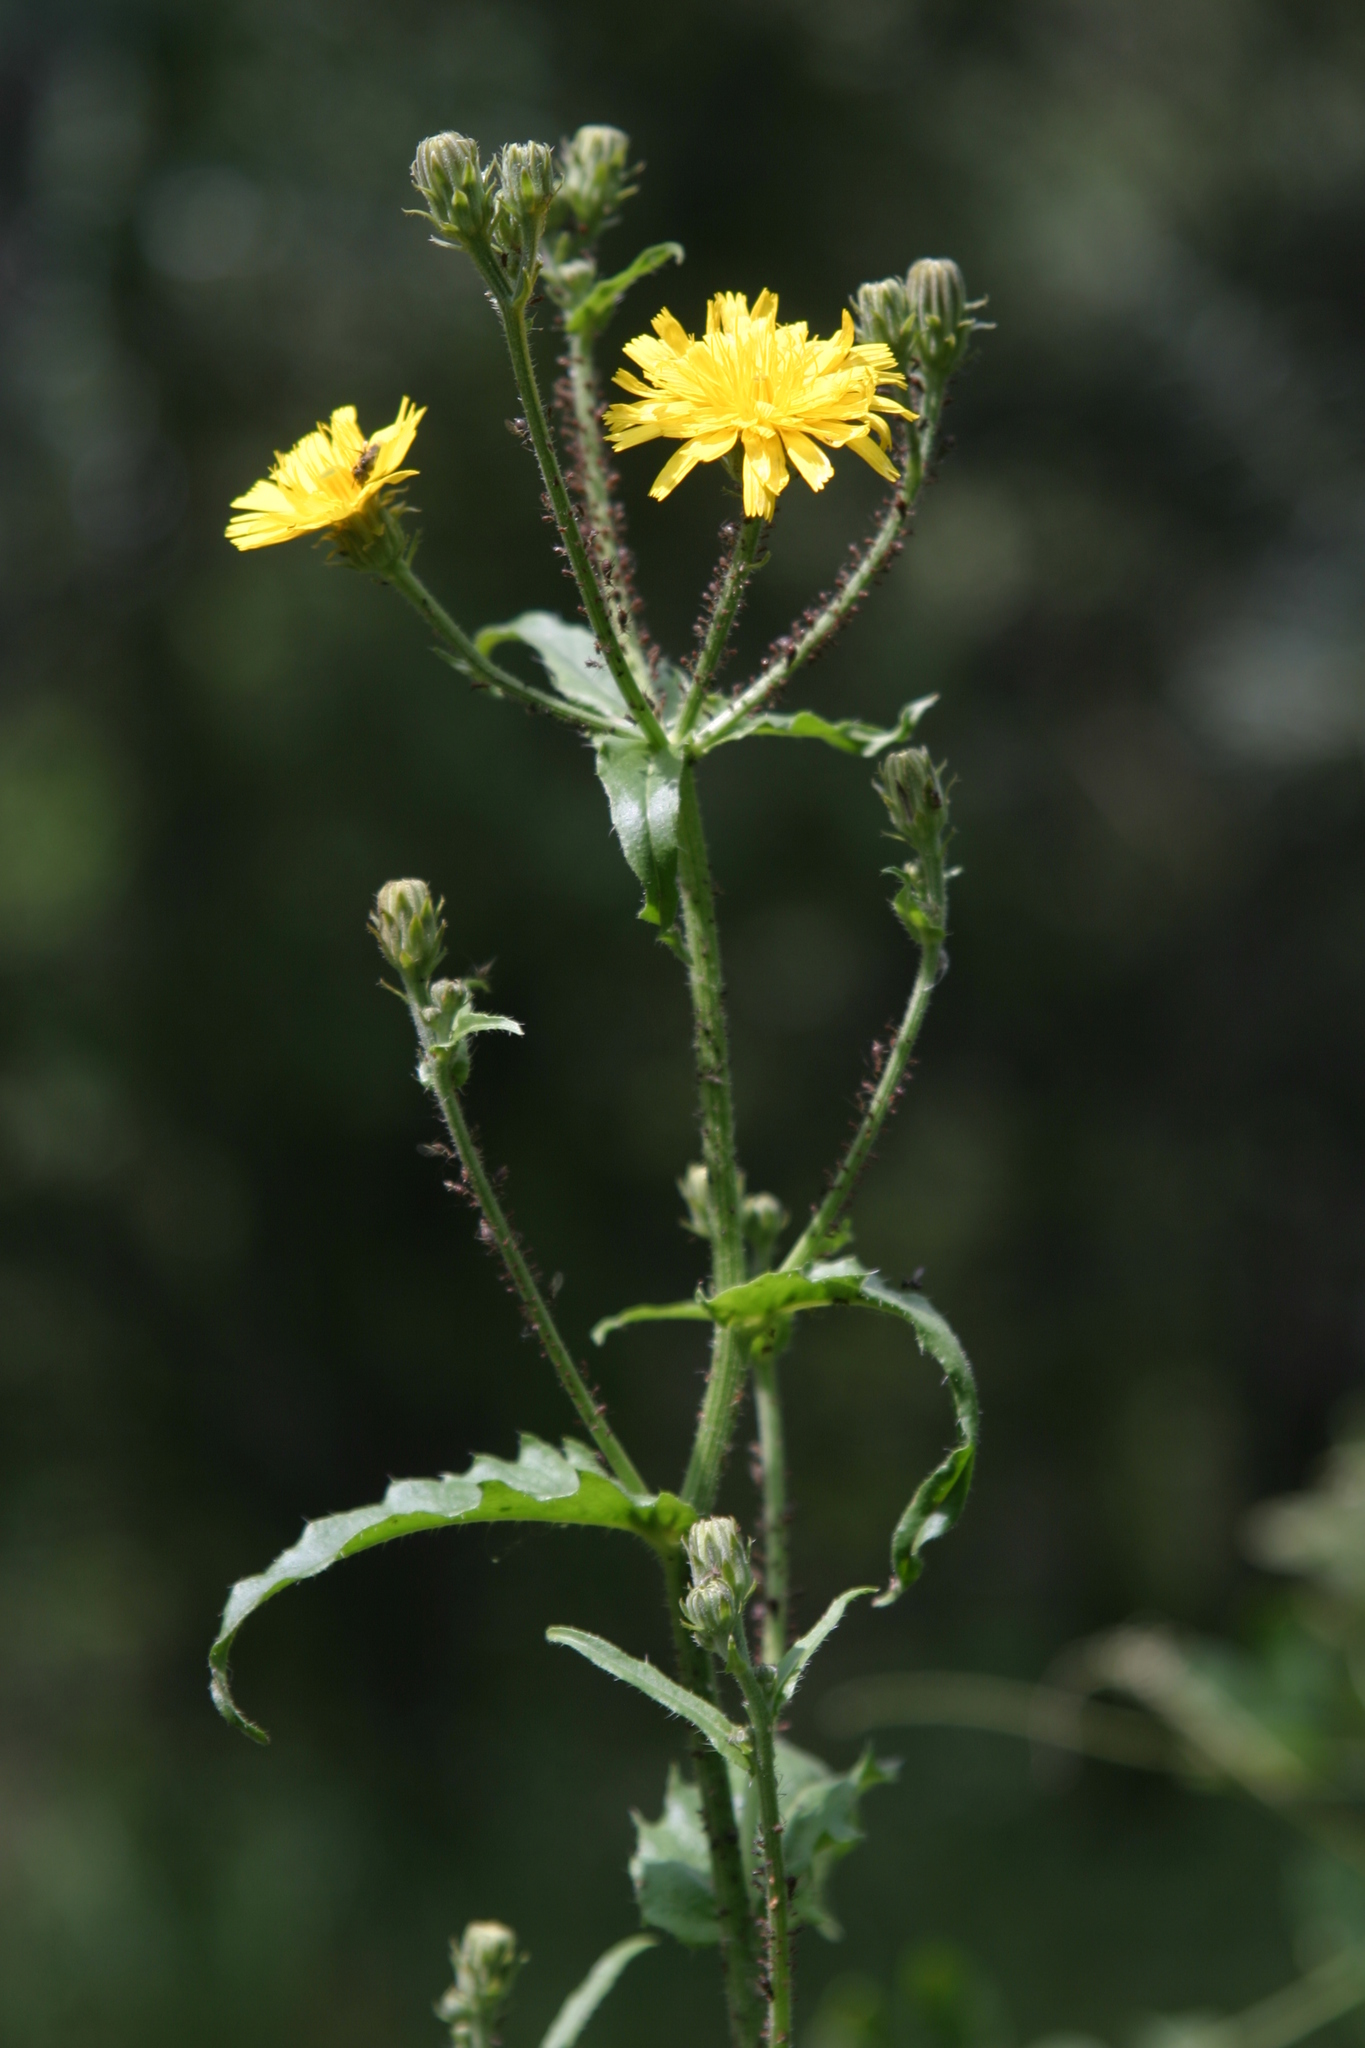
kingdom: Plantae
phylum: Tracheophyta
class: Magnoliopsida
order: Asterales
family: Asteraceae
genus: Picris
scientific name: Picris hieracioides
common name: Hawkweed oxtongue
